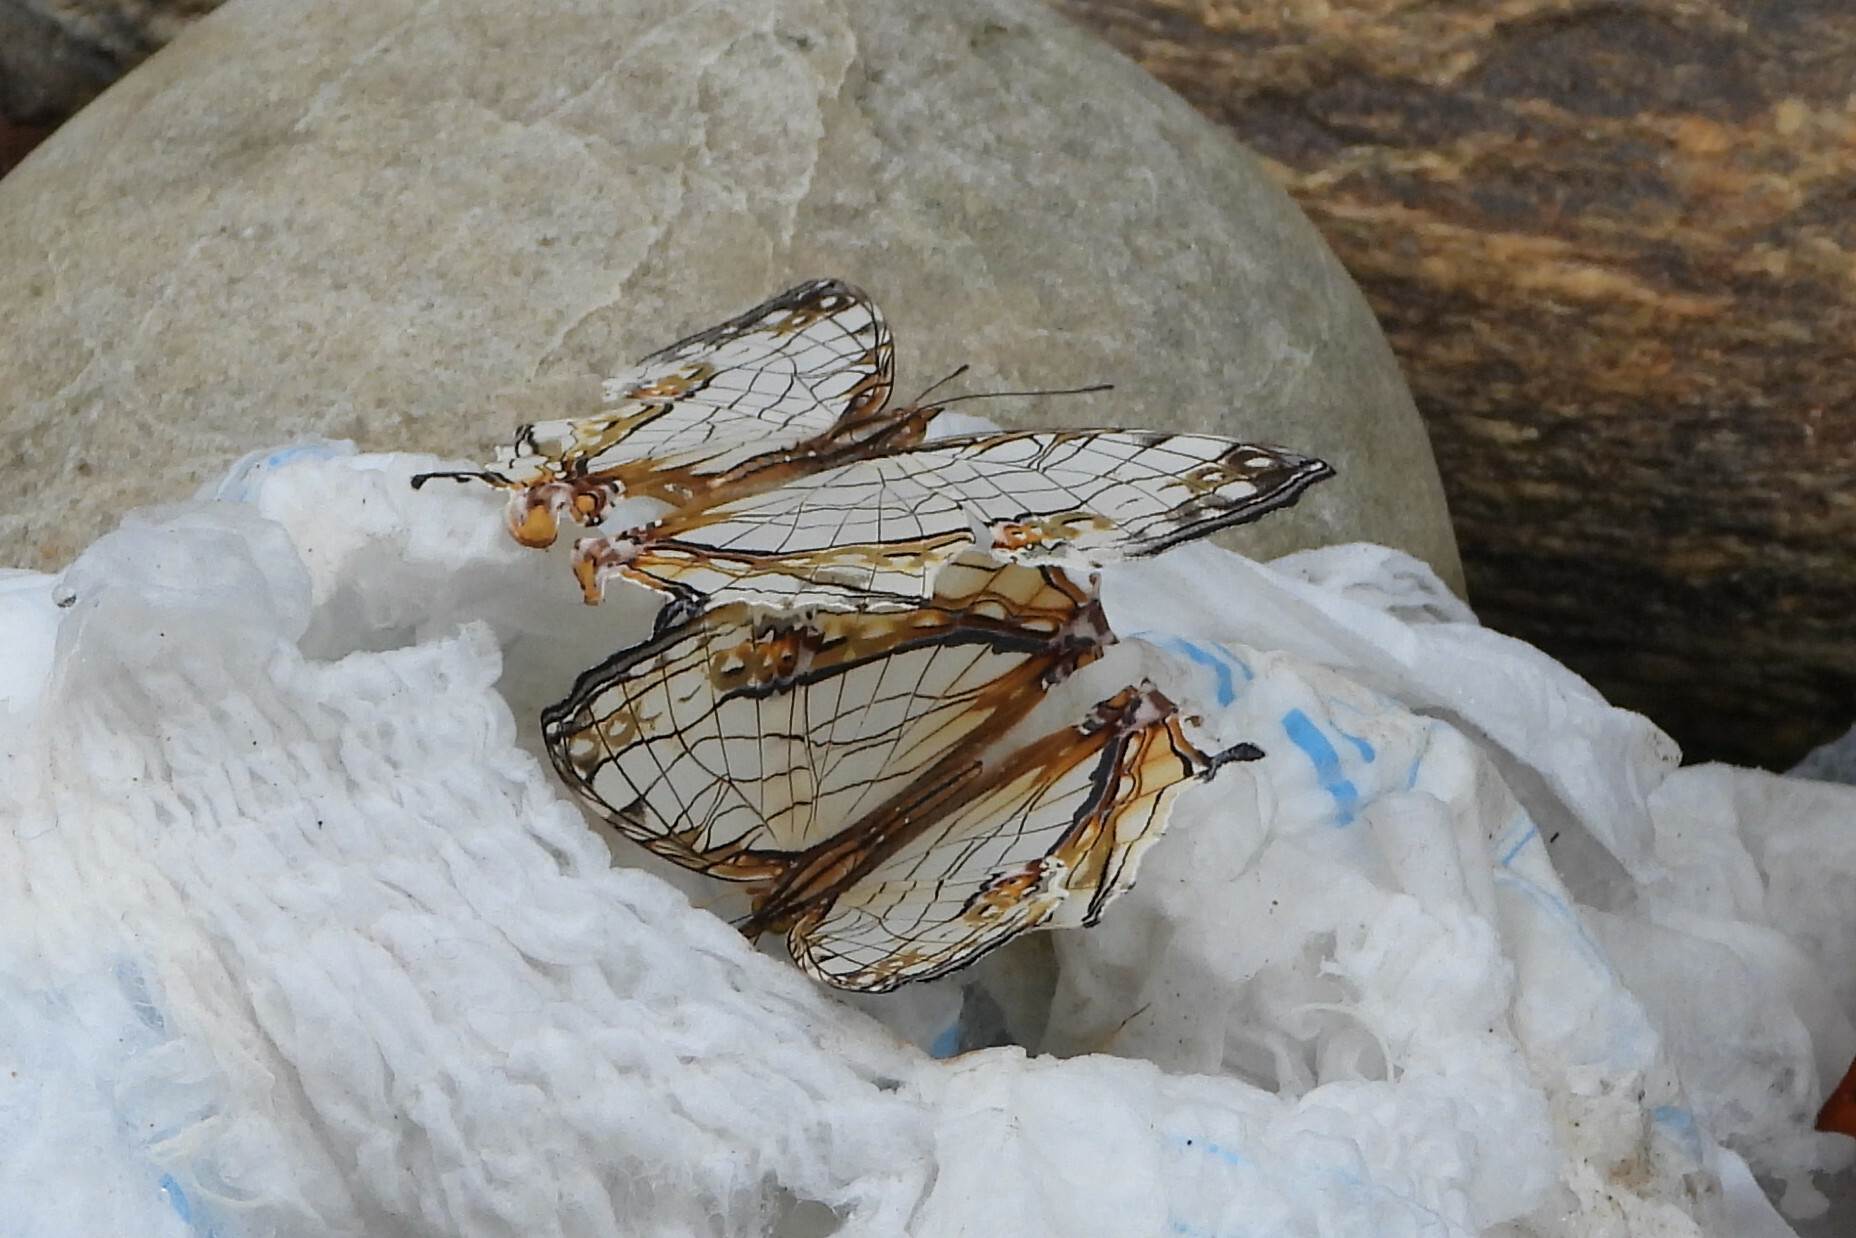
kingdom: Animalia
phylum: Arthropoda
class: Insecta
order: Lepidoptera
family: Nymphalidae
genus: Cyrestis
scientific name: Cyrestis thyodamas
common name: Common mapwing
